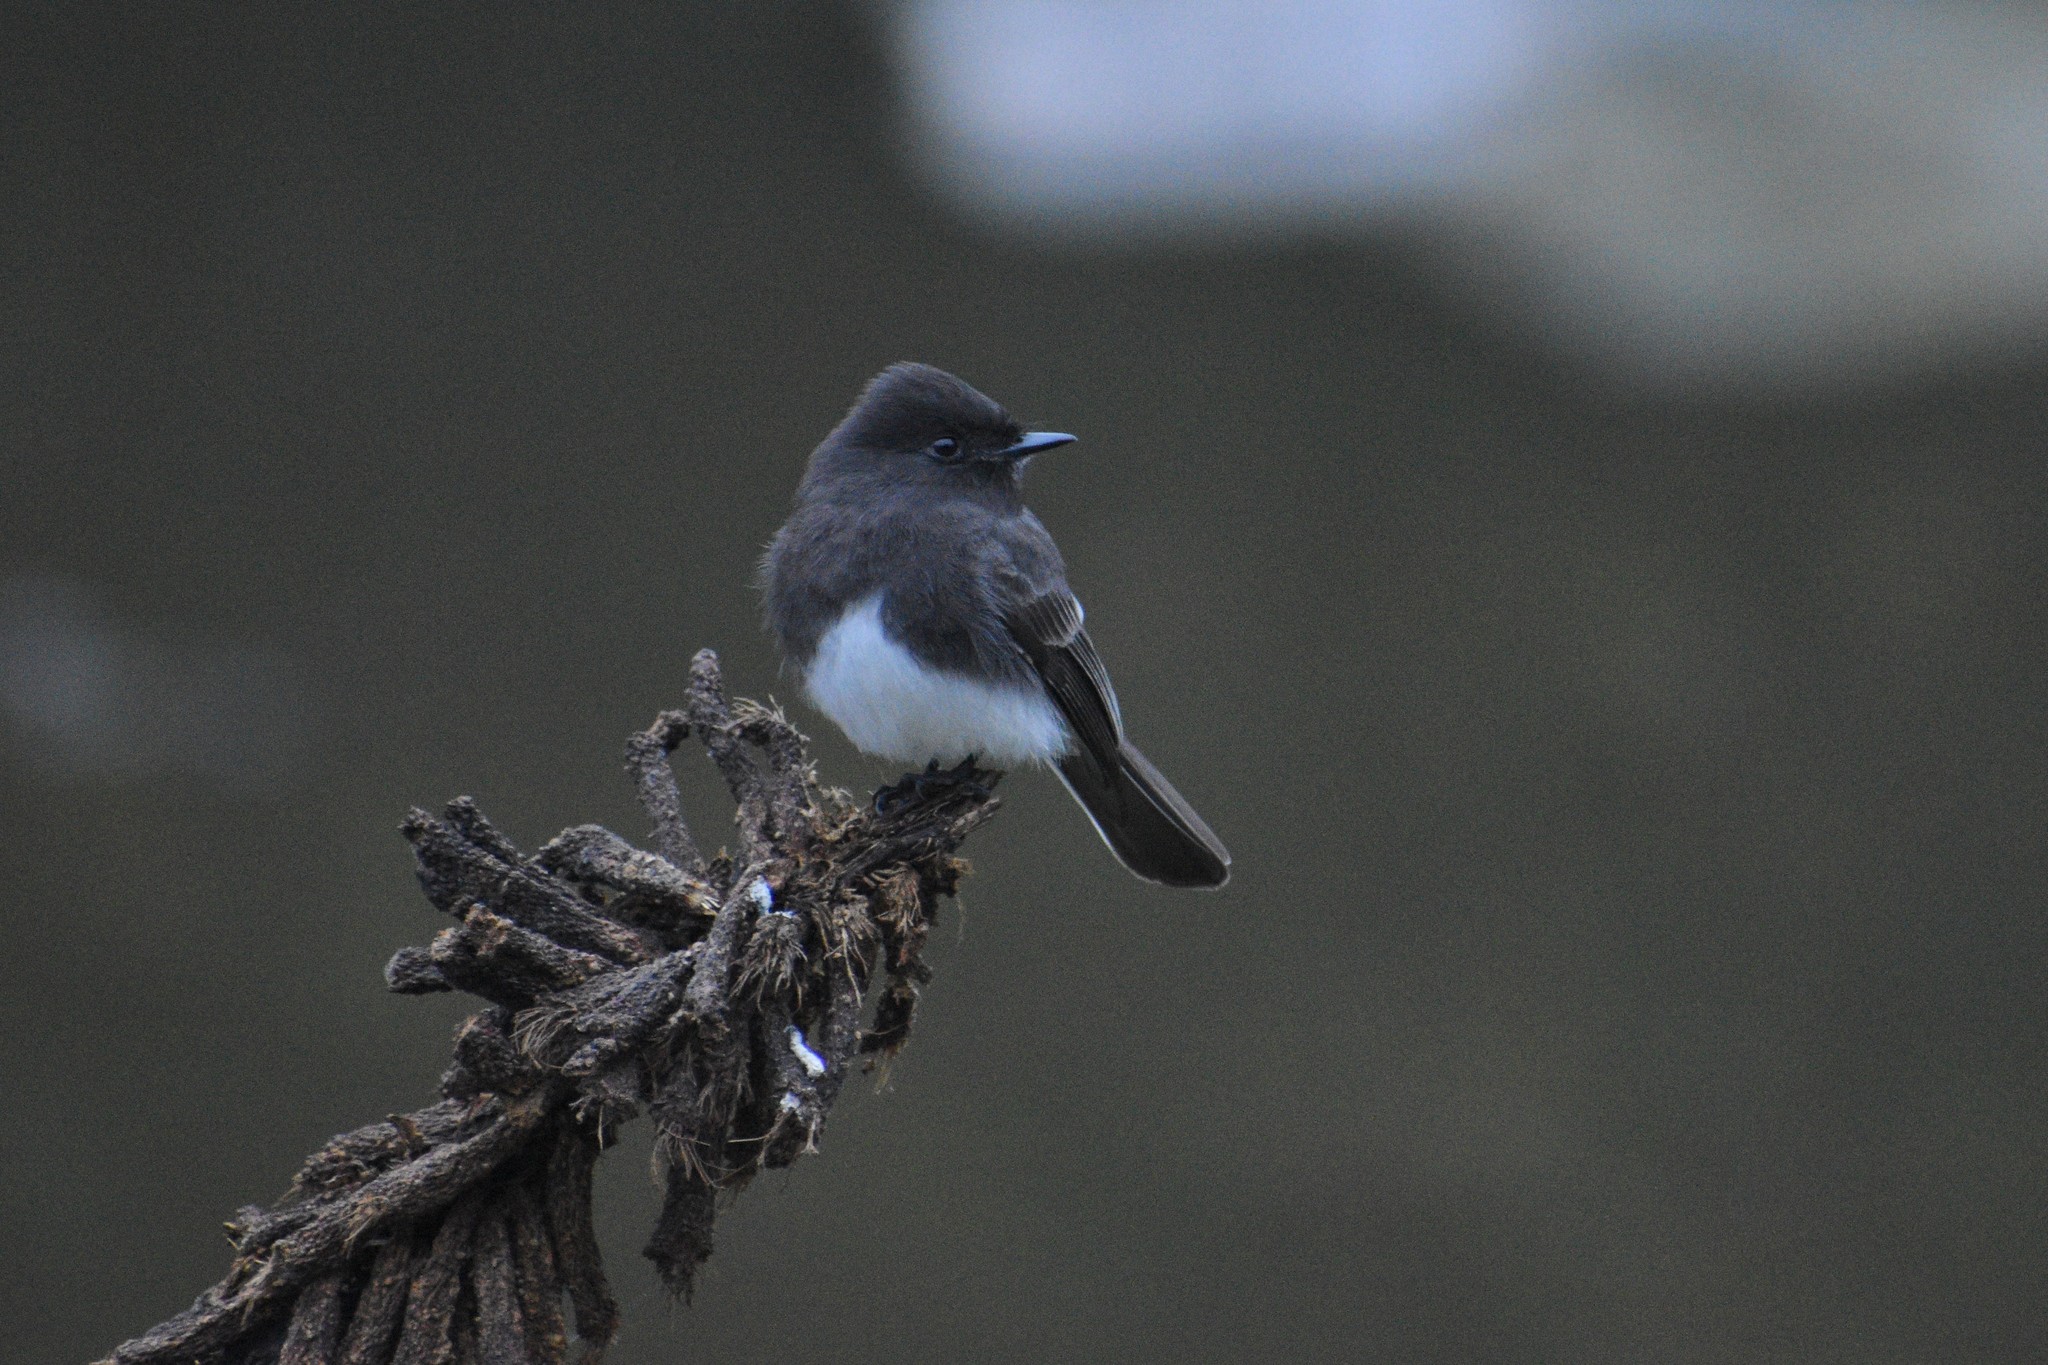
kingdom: Animalia
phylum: Chordata
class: Aves
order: Passeriformes
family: Tyrannidae
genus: Sayornis
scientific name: Sayornis nigricans
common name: Black phoebe
